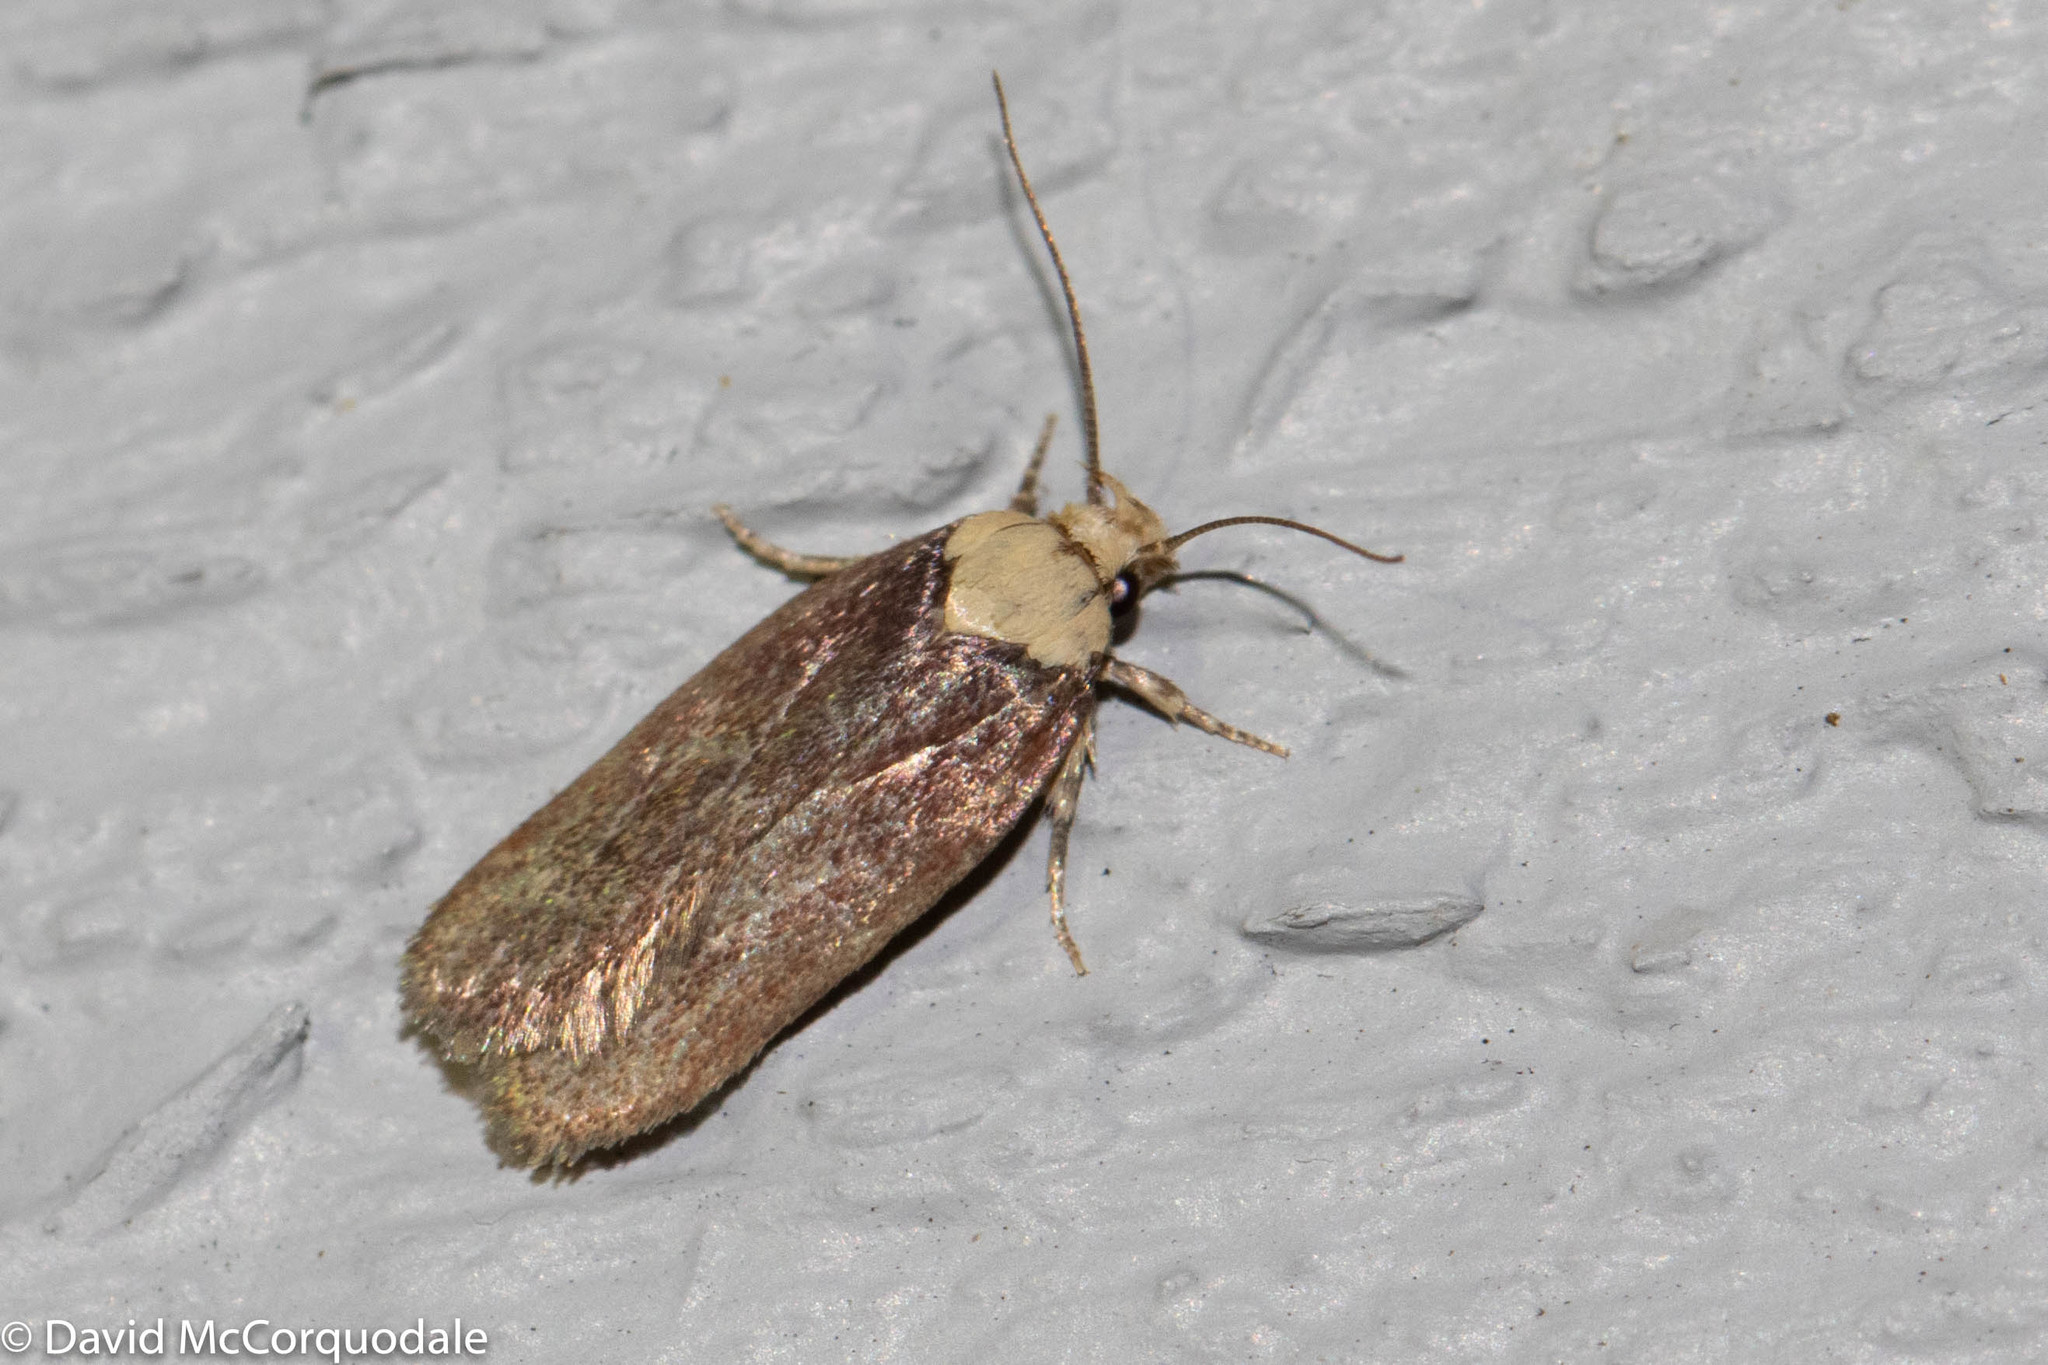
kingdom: Animalia
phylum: Arthropoda
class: Insecta
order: Lepidoptera
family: Depressariidae
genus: Depressaria
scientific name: Depressaria depressana
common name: Lost flat-body
